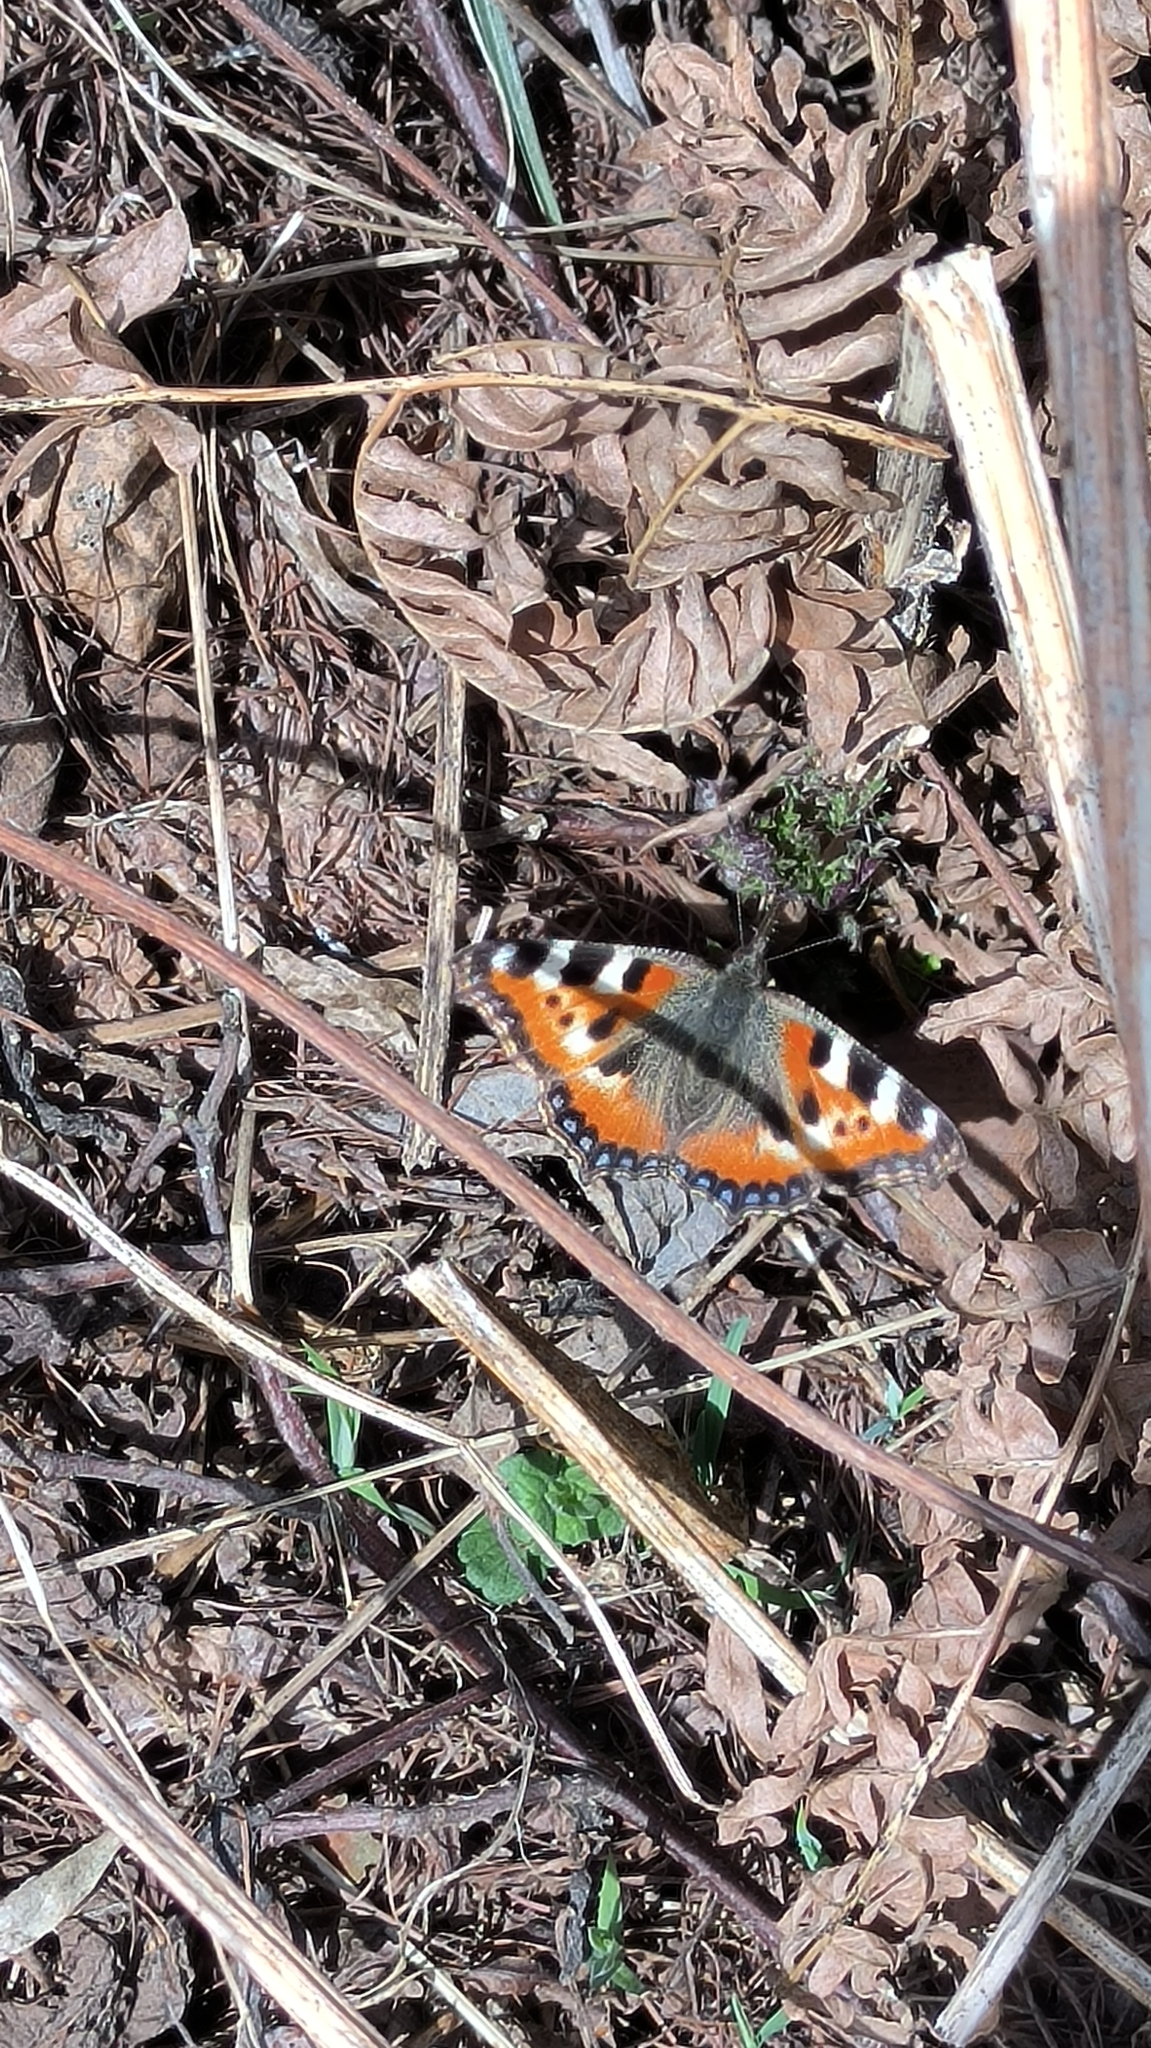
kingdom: Animalia
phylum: Arthropoda
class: Insecta
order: Lepidoptera
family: Nymphalidae
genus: Aglais
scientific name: Aglais urticae
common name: Small tortoiseshell
